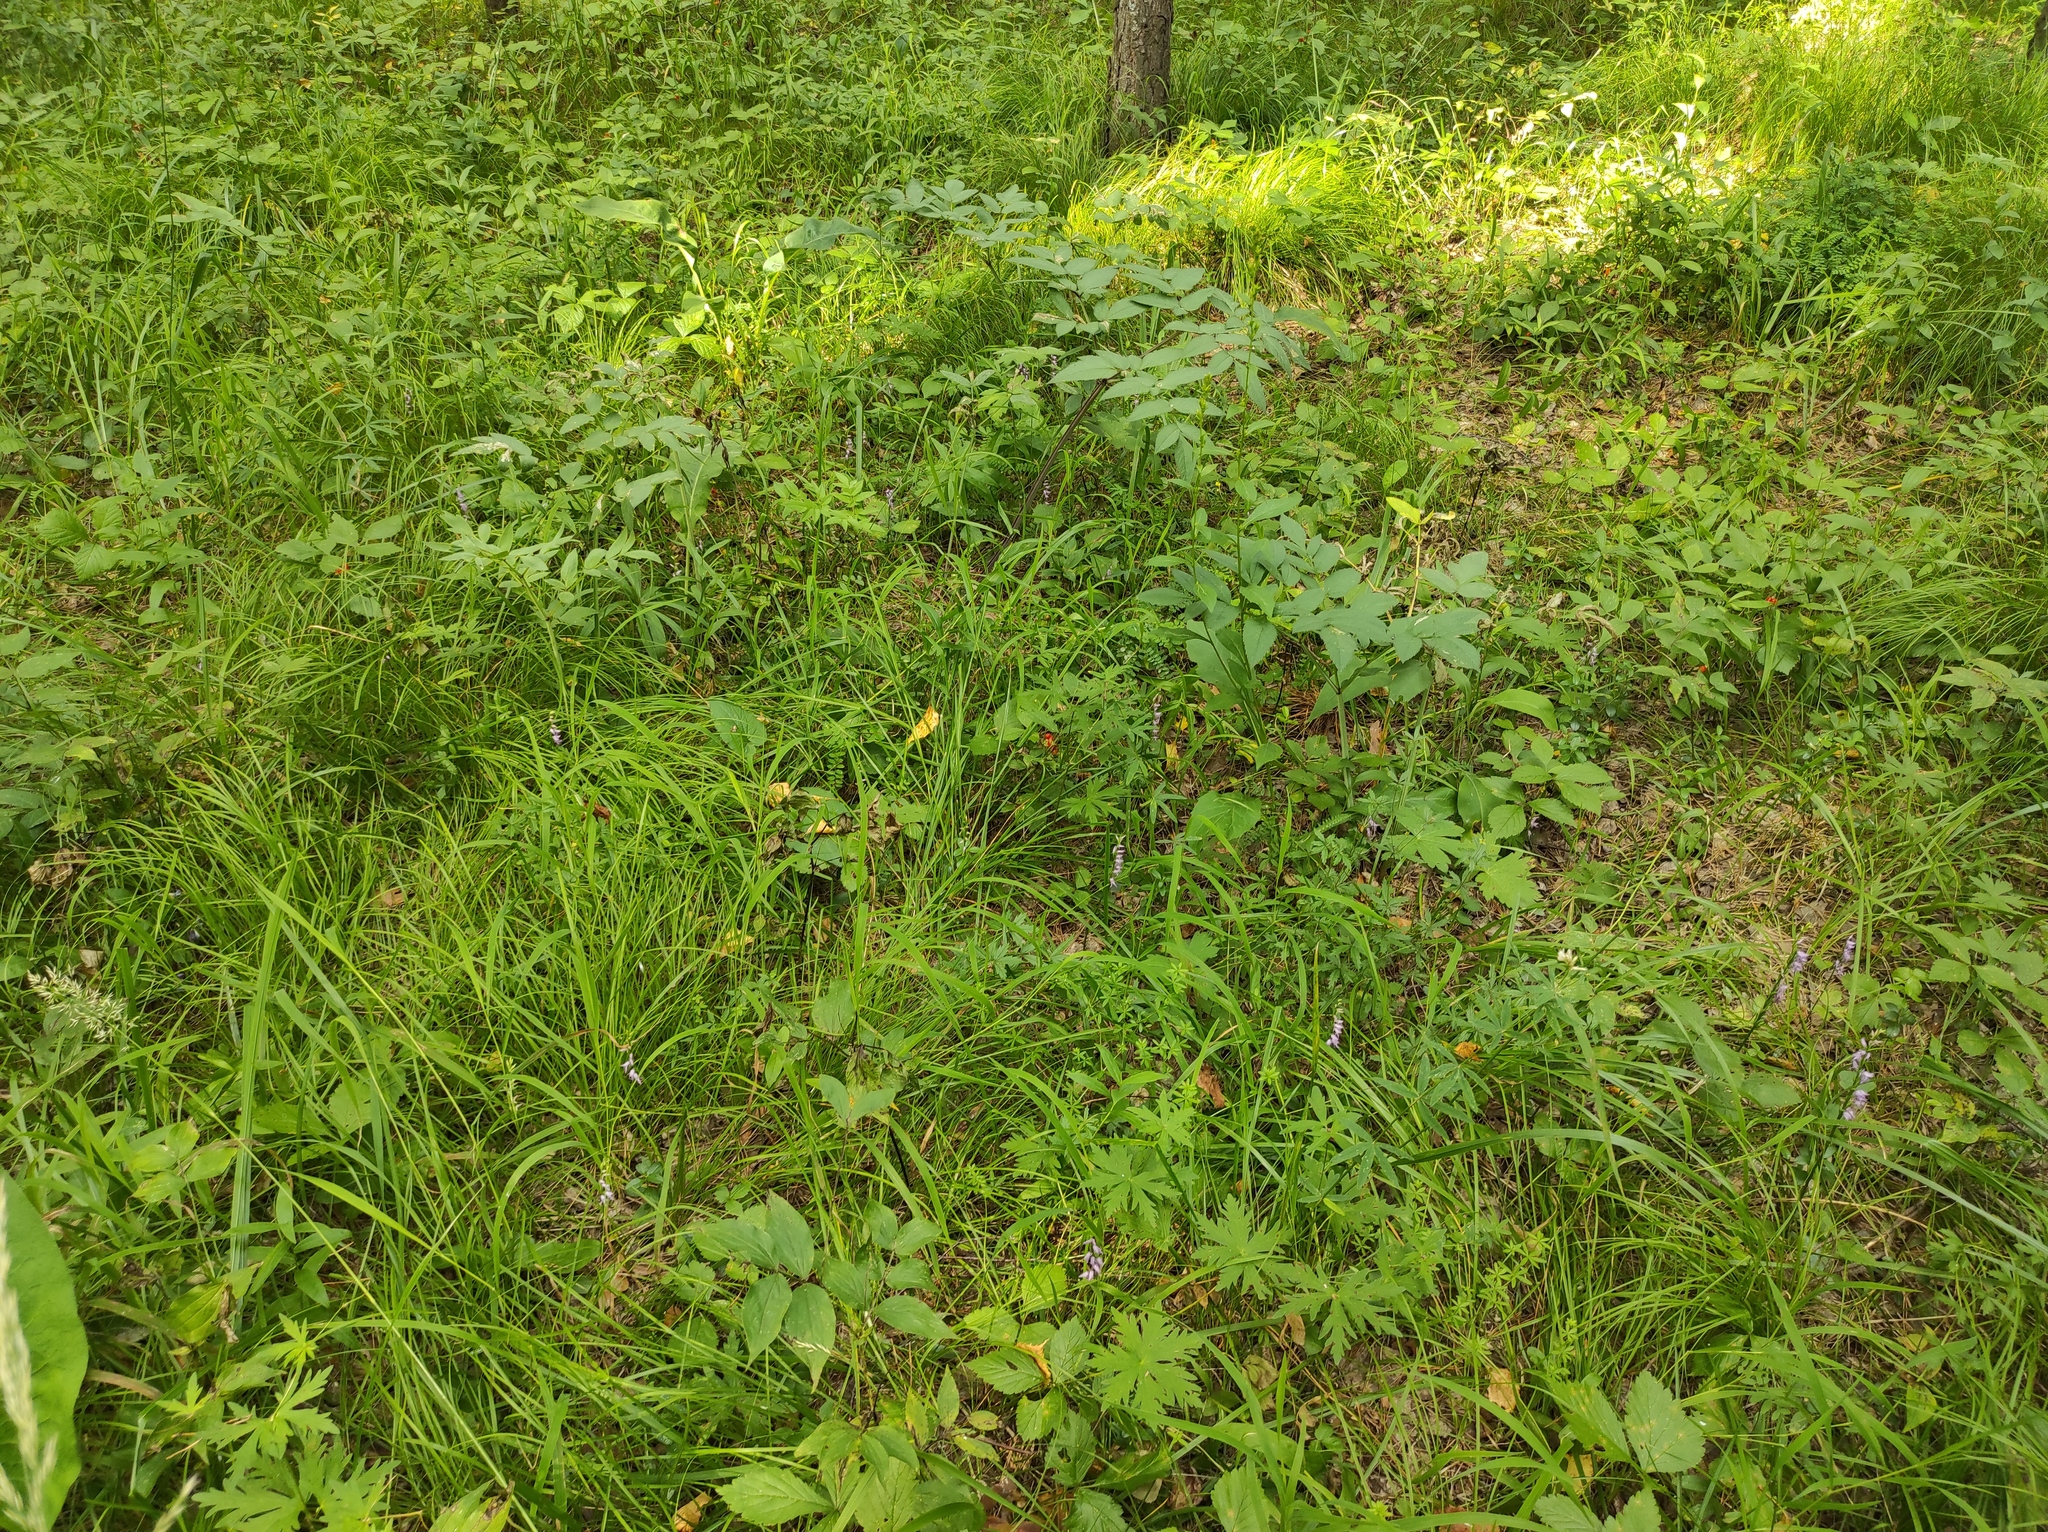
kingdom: Plantae
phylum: Tracheophyta
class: Liliopsida
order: Asparagales
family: Orchidaceae
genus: Hemipilia
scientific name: Hemipilia cucullata
